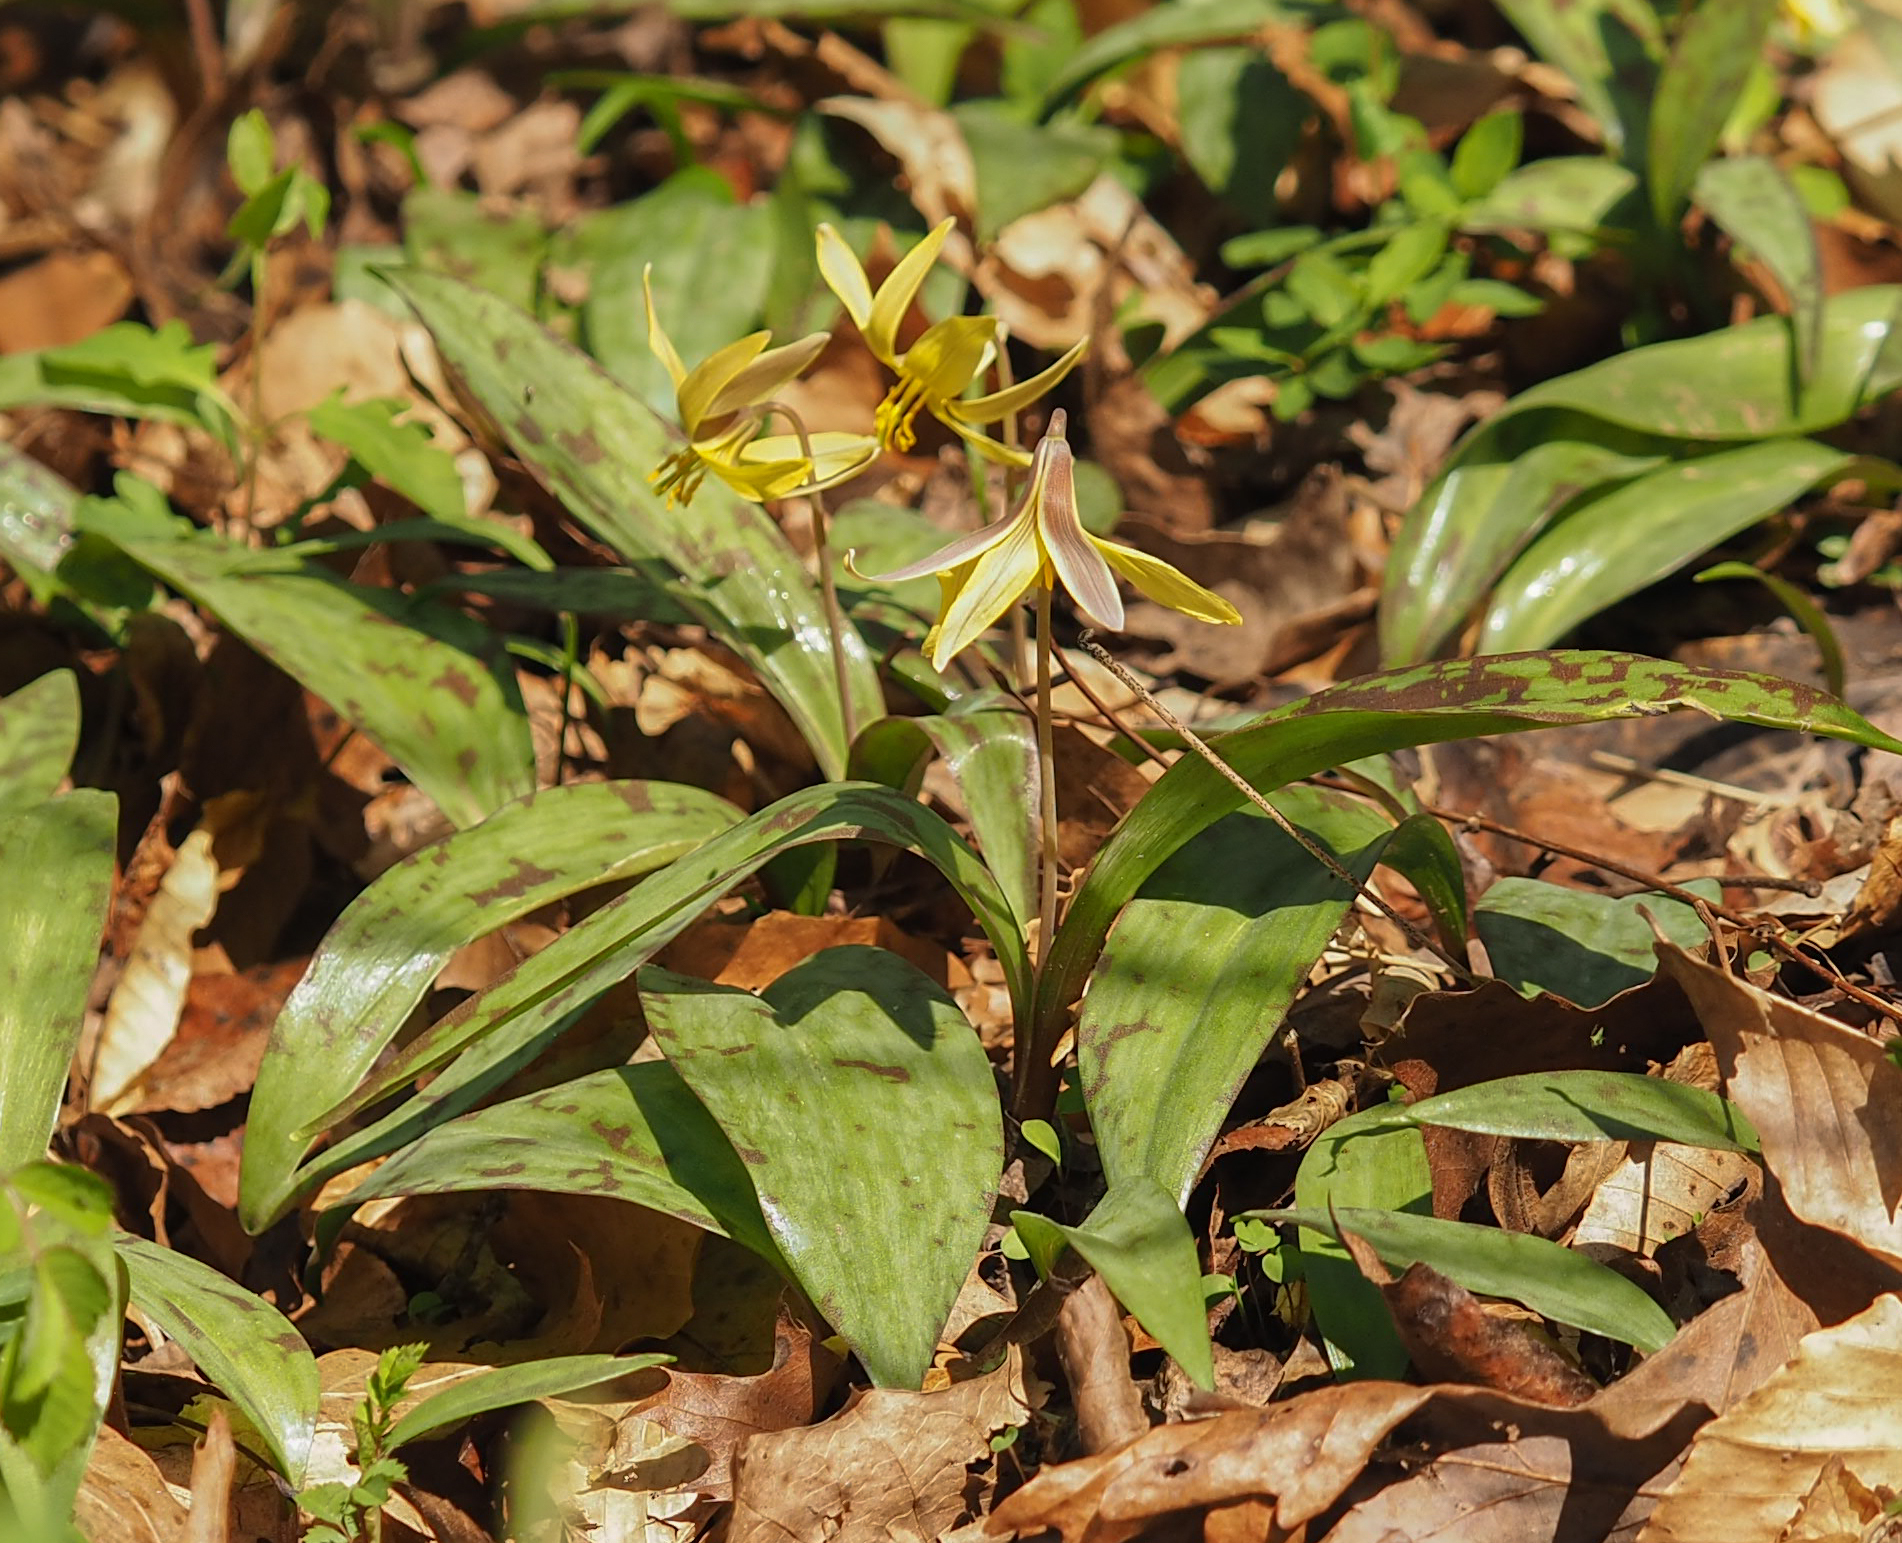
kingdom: Plantae
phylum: Tracheophyta
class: Liliopsida
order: Liliales
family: Liliaceae
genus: Erythronium
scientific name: Erythronium americanum
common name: Yellow adder's-tongue
